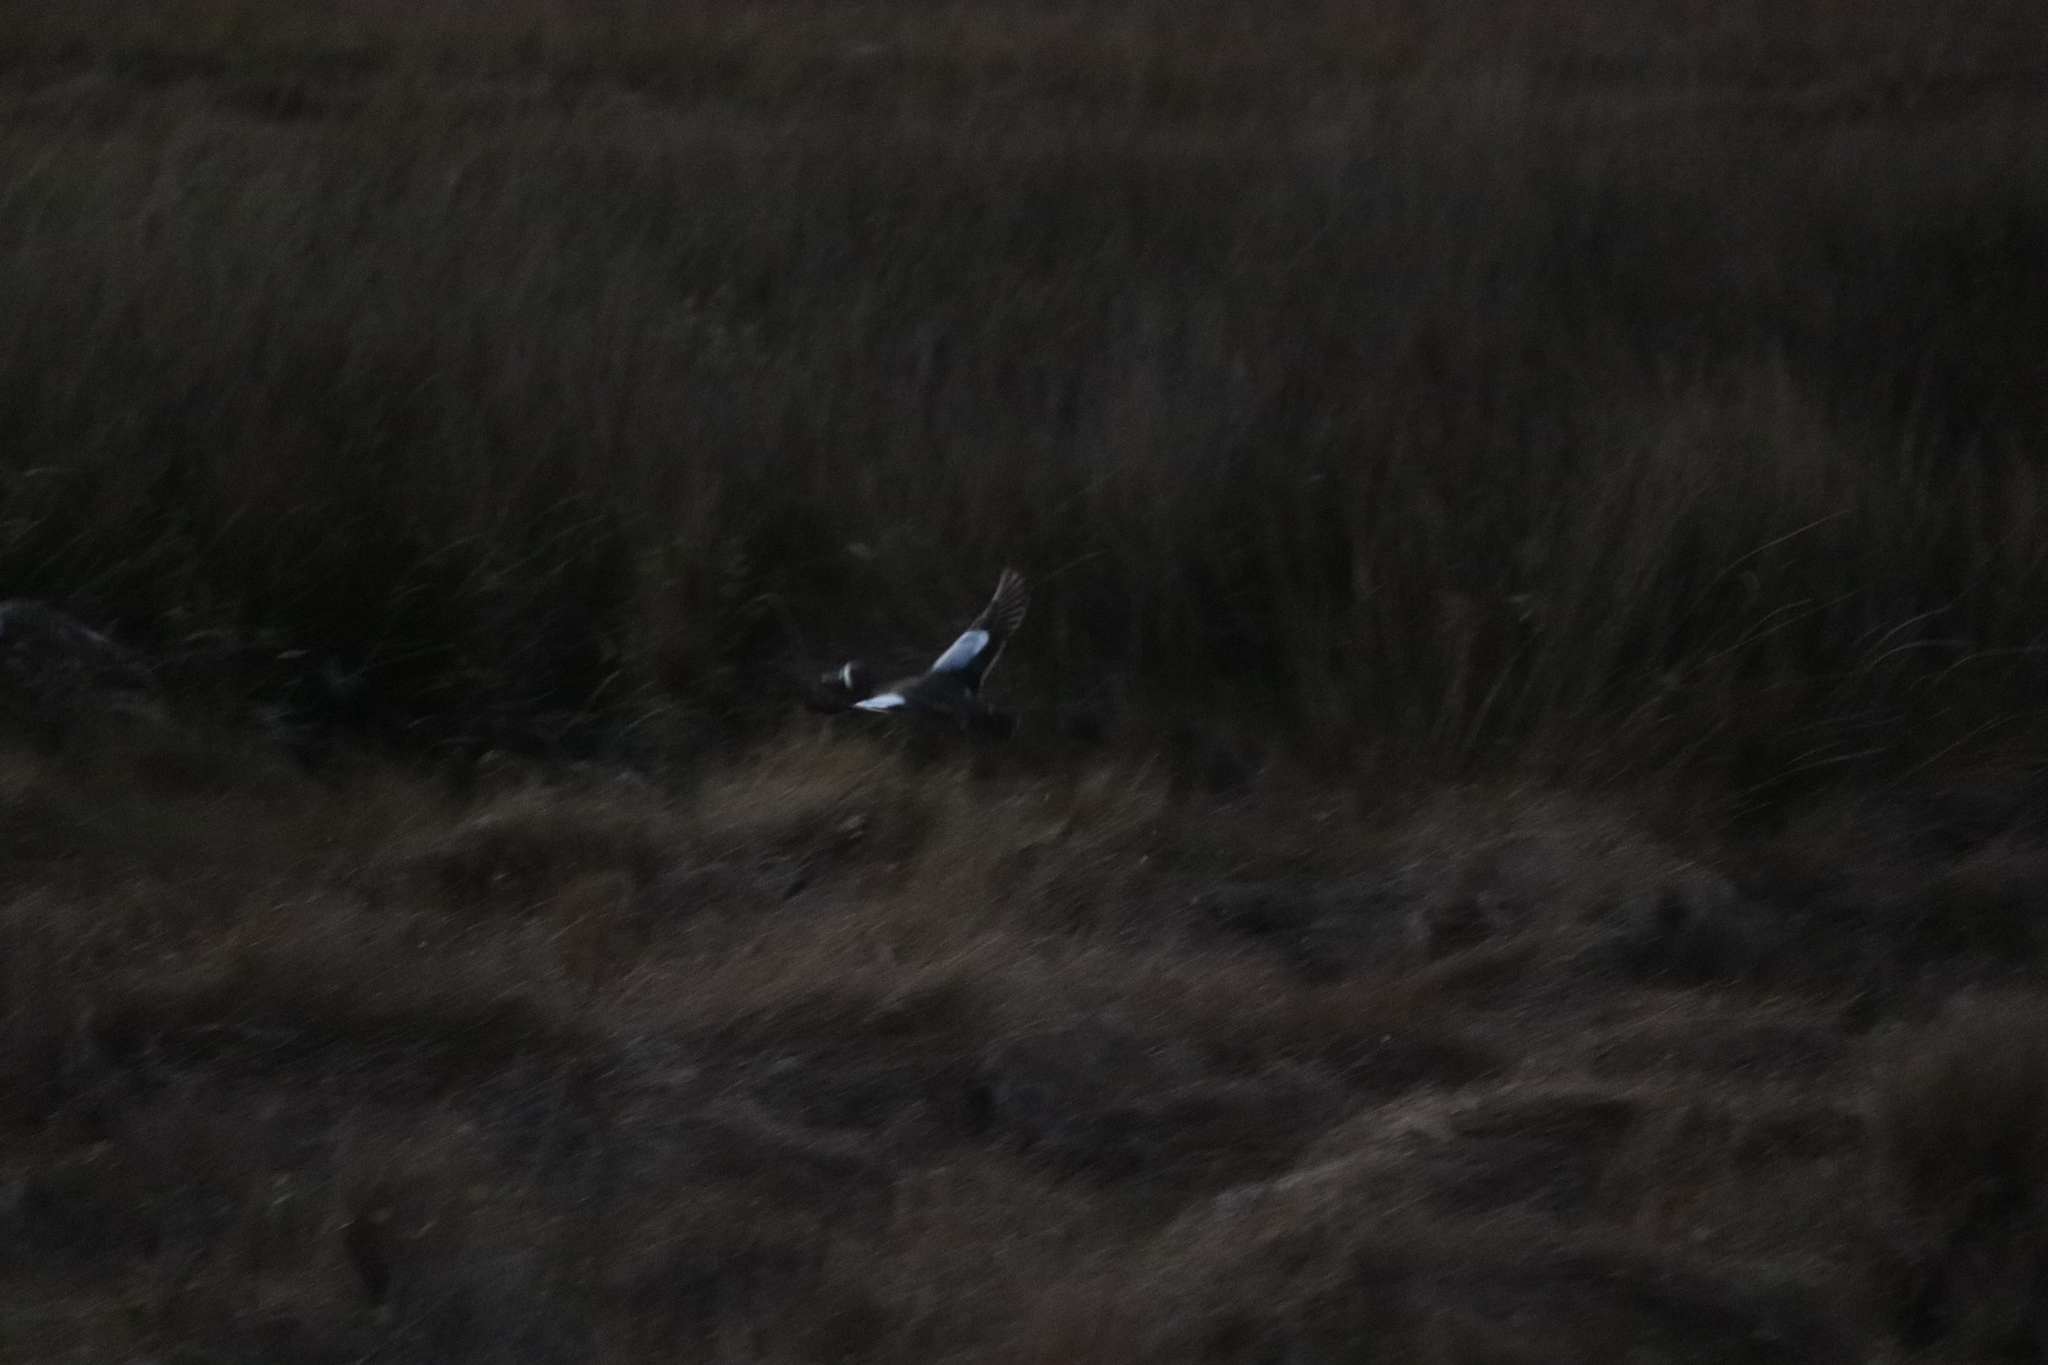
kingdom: Animalia
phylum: Chordata
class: Aves
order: Anseriformes
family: Anatidae
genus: Spatula
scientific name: Spatula discors
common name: Blue-winged teal
